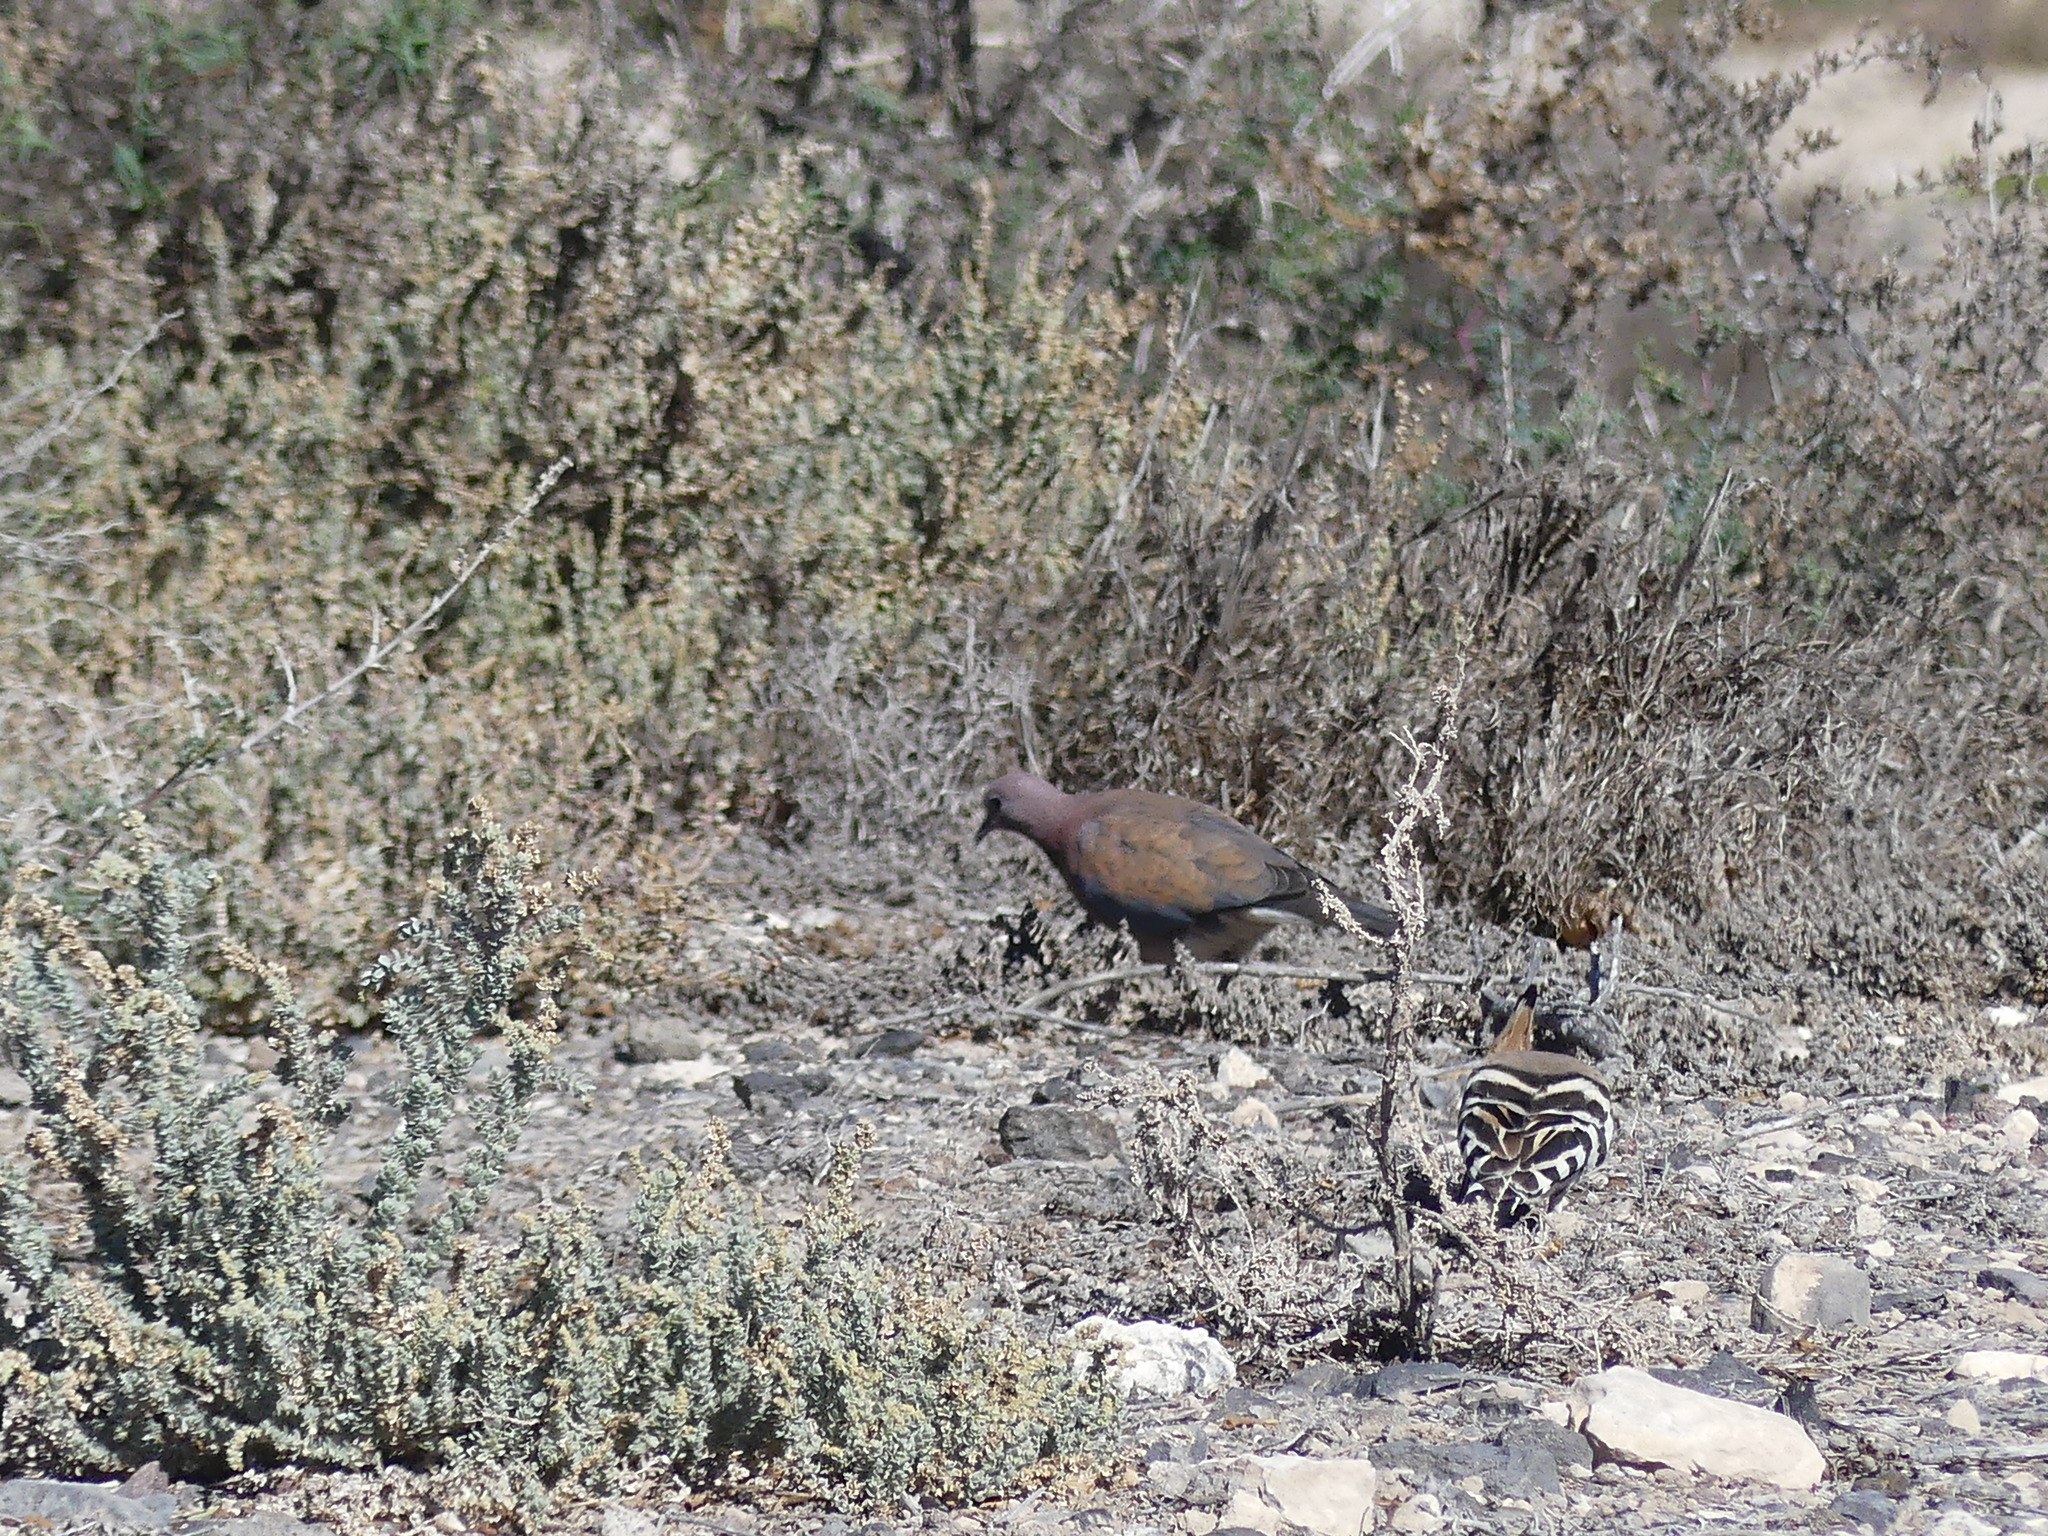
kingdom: Animalia
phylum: Chordata
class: Aves
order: Columbiformes
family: Columbidae
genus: Spilopelia
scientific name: Spilopelia senegalensis
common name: Laughing dove
